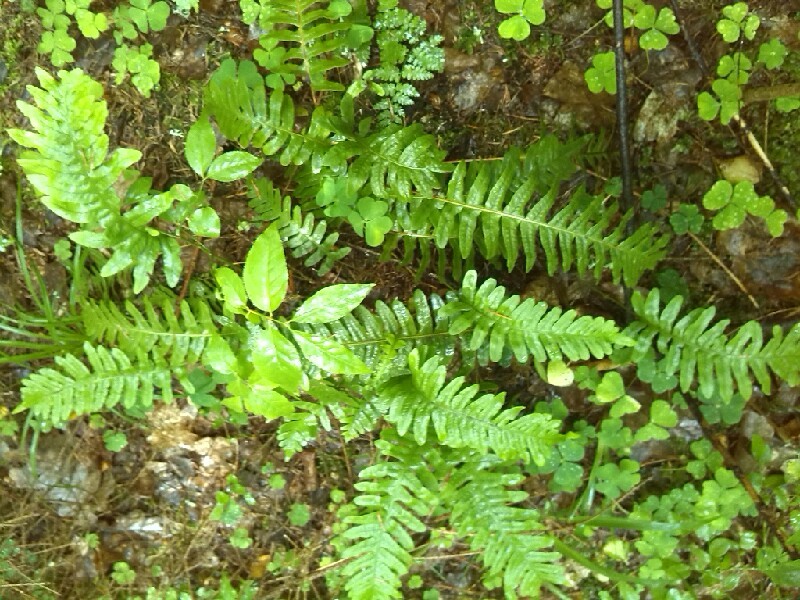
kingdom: Plantae
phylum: Tracheophyta
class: Polypodiopsida
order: Polypodiales
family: Polypodiaceae
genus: Polypodium
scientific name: Polypodium vulgare
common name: Common polypody
